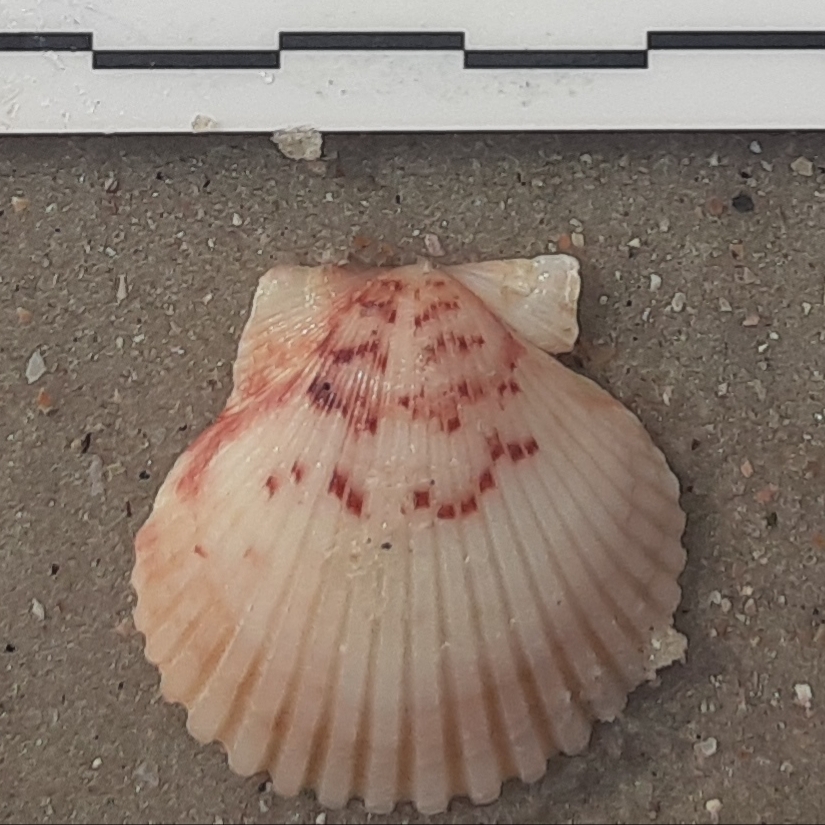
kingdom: Animalia
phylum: Mollusca
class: Bivalvia
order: Pectinida
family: Pectinidae
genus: Argopecten
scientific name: Argopecten gibbus
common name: Atlantic calico scallop
